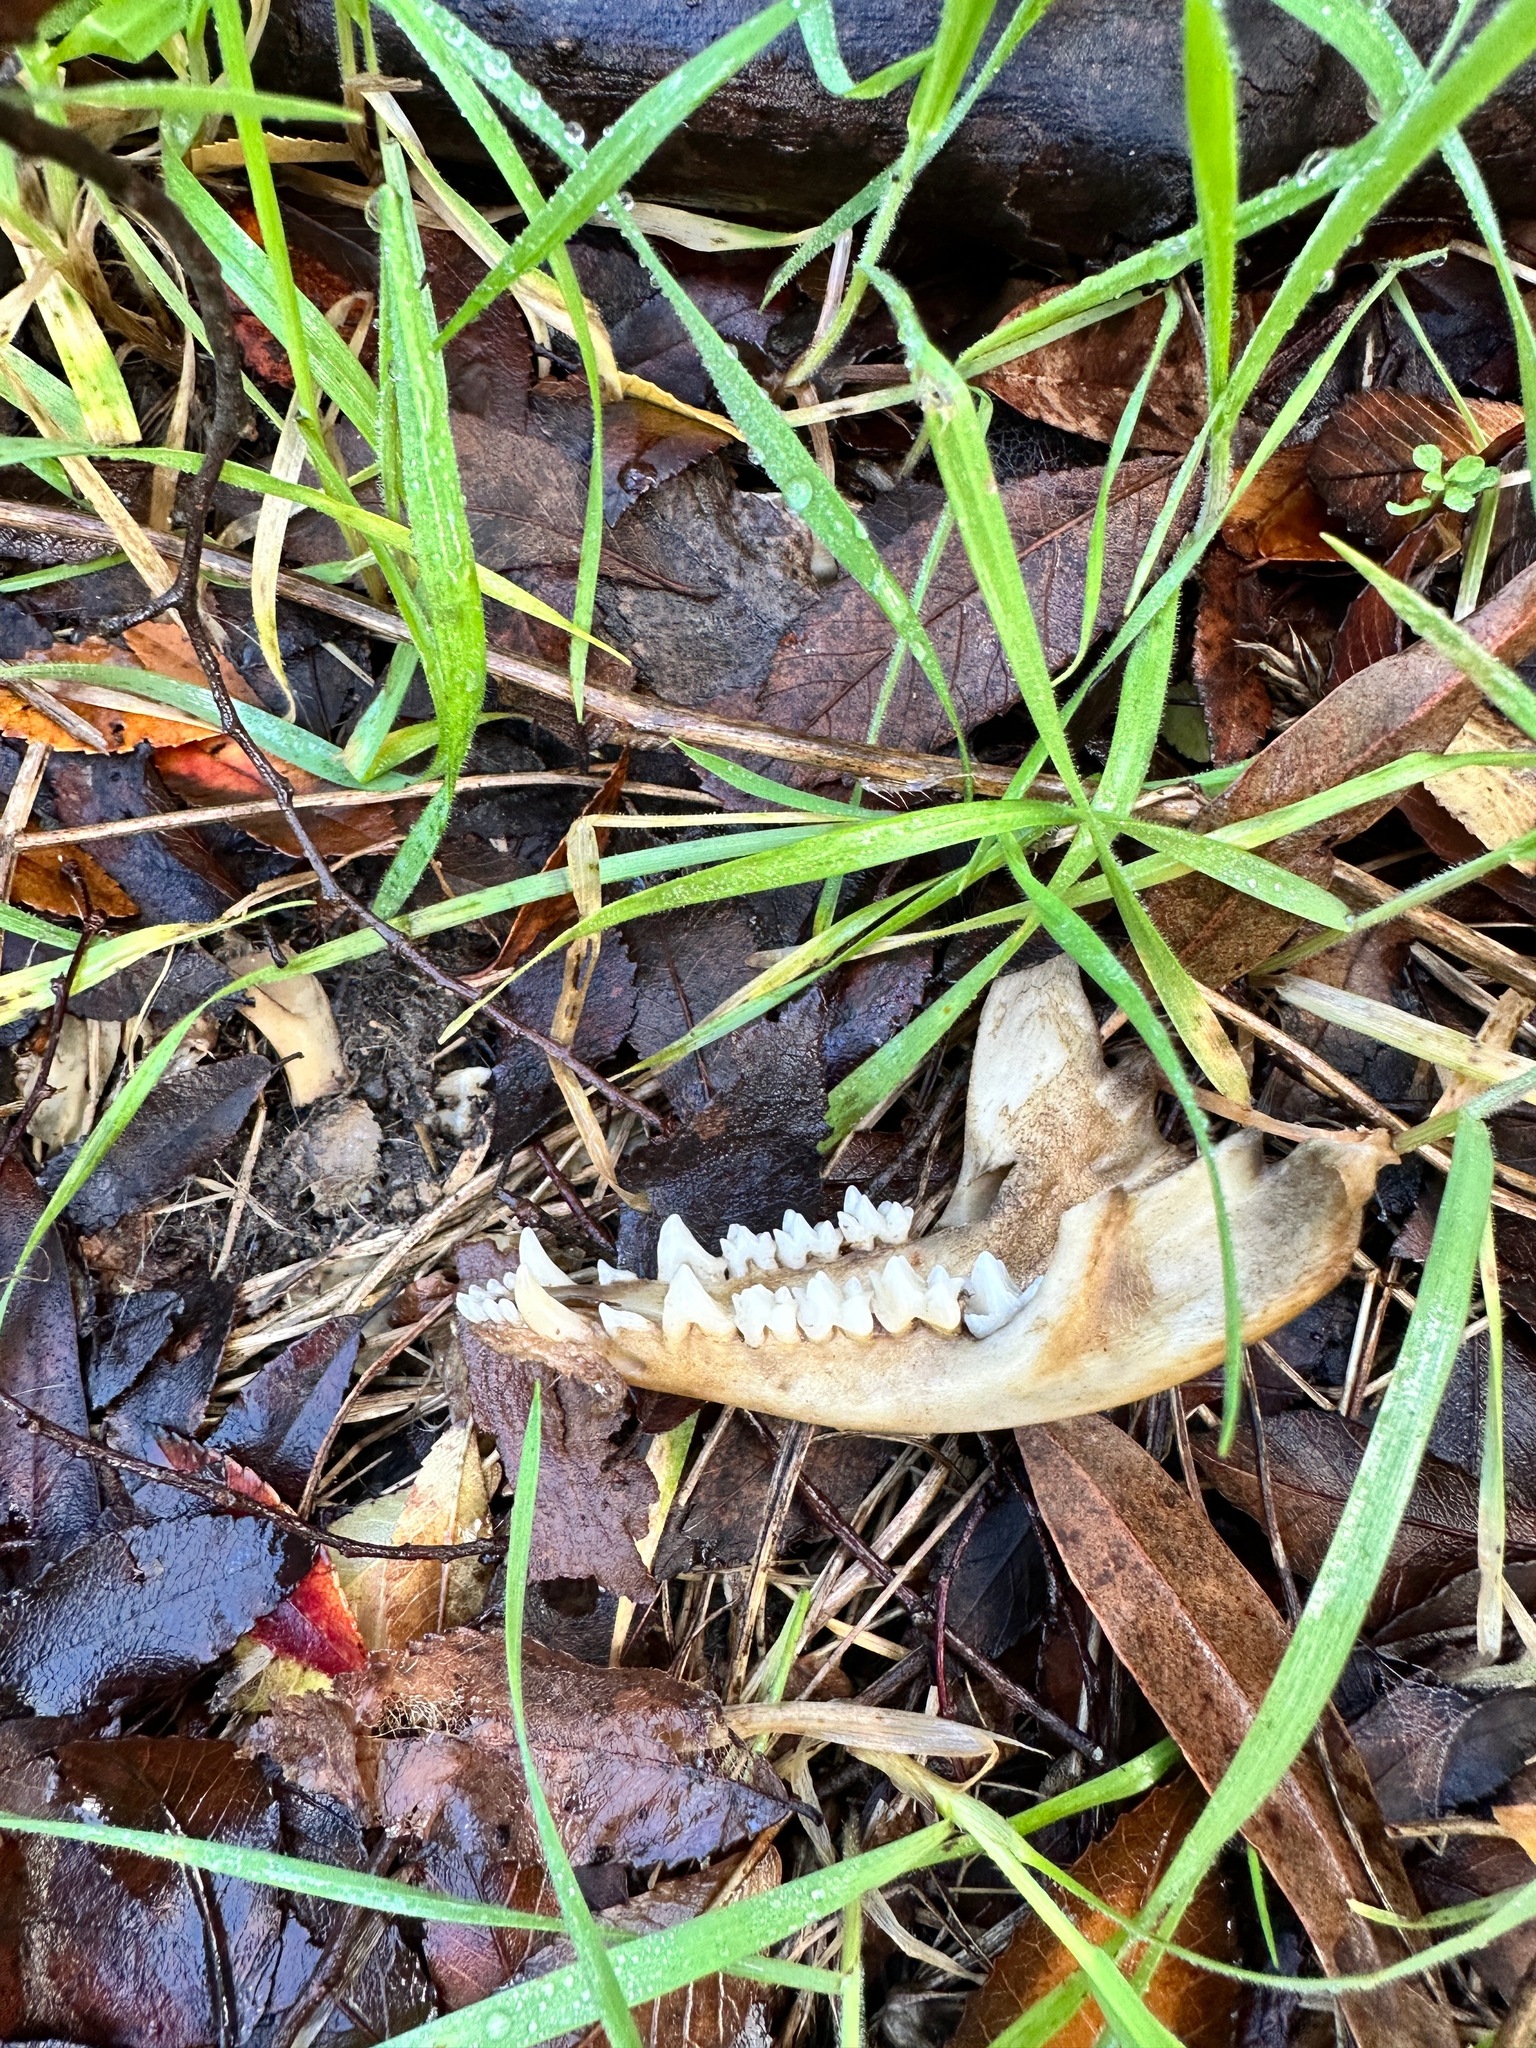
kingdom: Animalia
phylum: Chordata
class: Mammalia
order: Didelphimorphia
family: Didelphidae
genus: Didelphis
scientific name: Didelphis virginiana
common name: Virginia opossum
